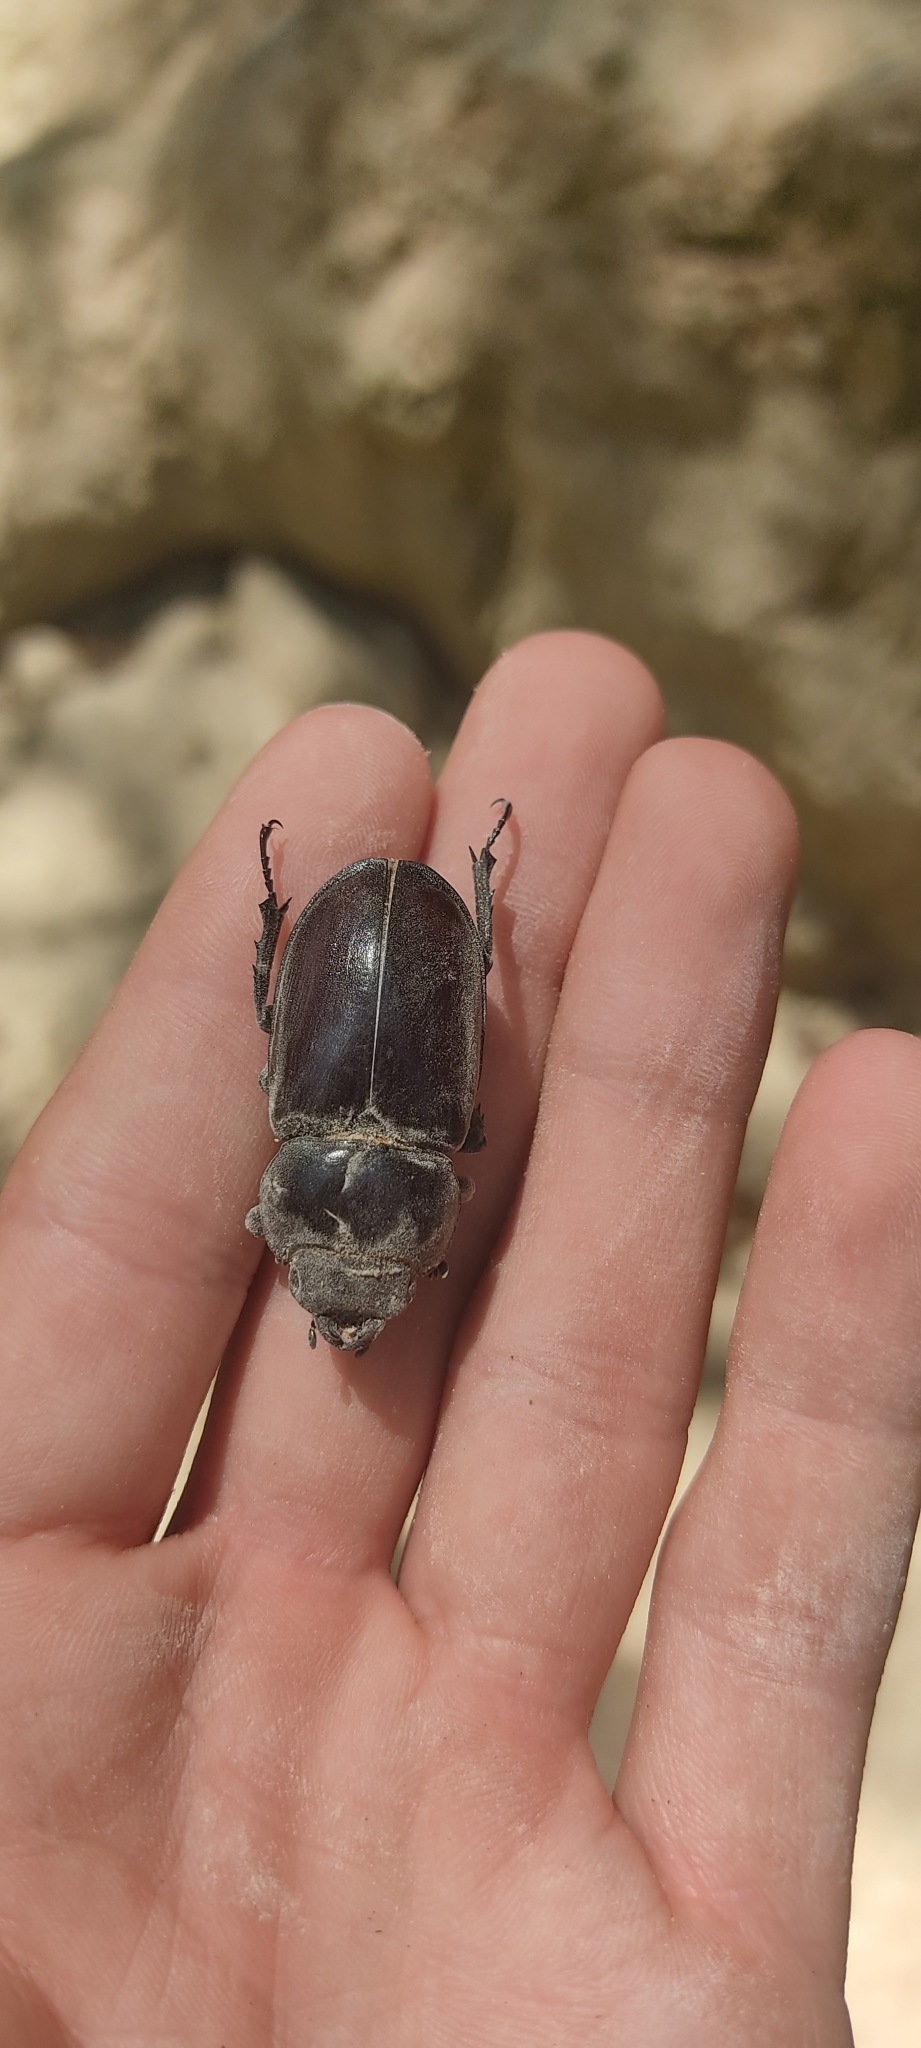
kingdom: Animalia
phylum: Arthropoda
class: Insecta
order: Coleoptera
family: Lucanidae
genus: Lucanus
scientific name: Lucanus cervus
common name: Stag beetle
